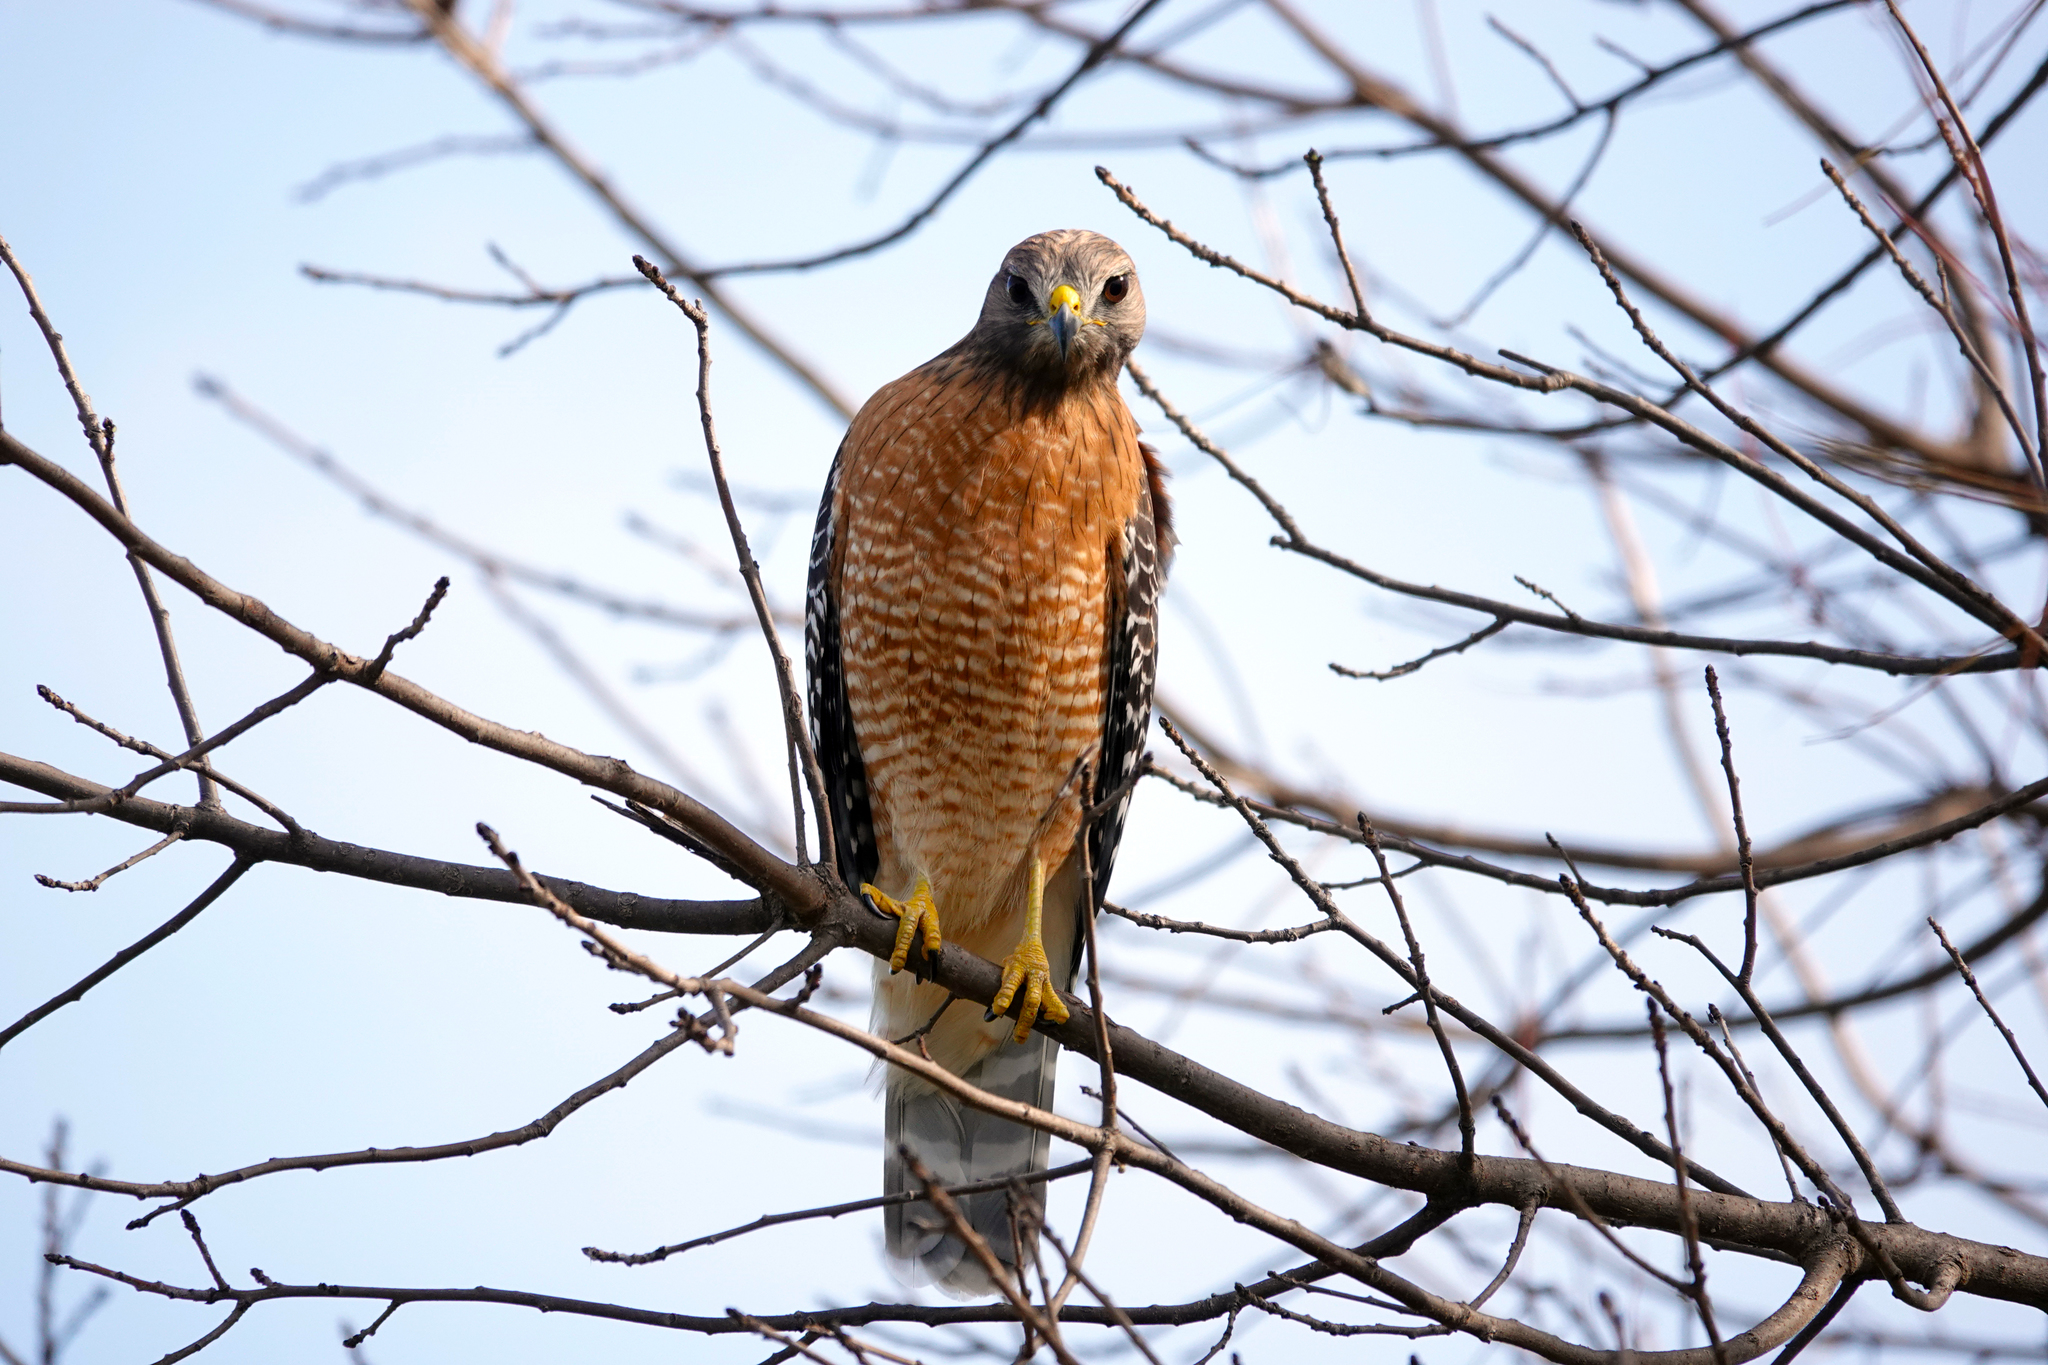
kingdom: Animalia
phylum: Chordata
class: Aves
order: Accipitriformes
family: Accipitridae
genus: Buteo
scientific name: Buteo lineatus
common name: Red-shouldered hawk
